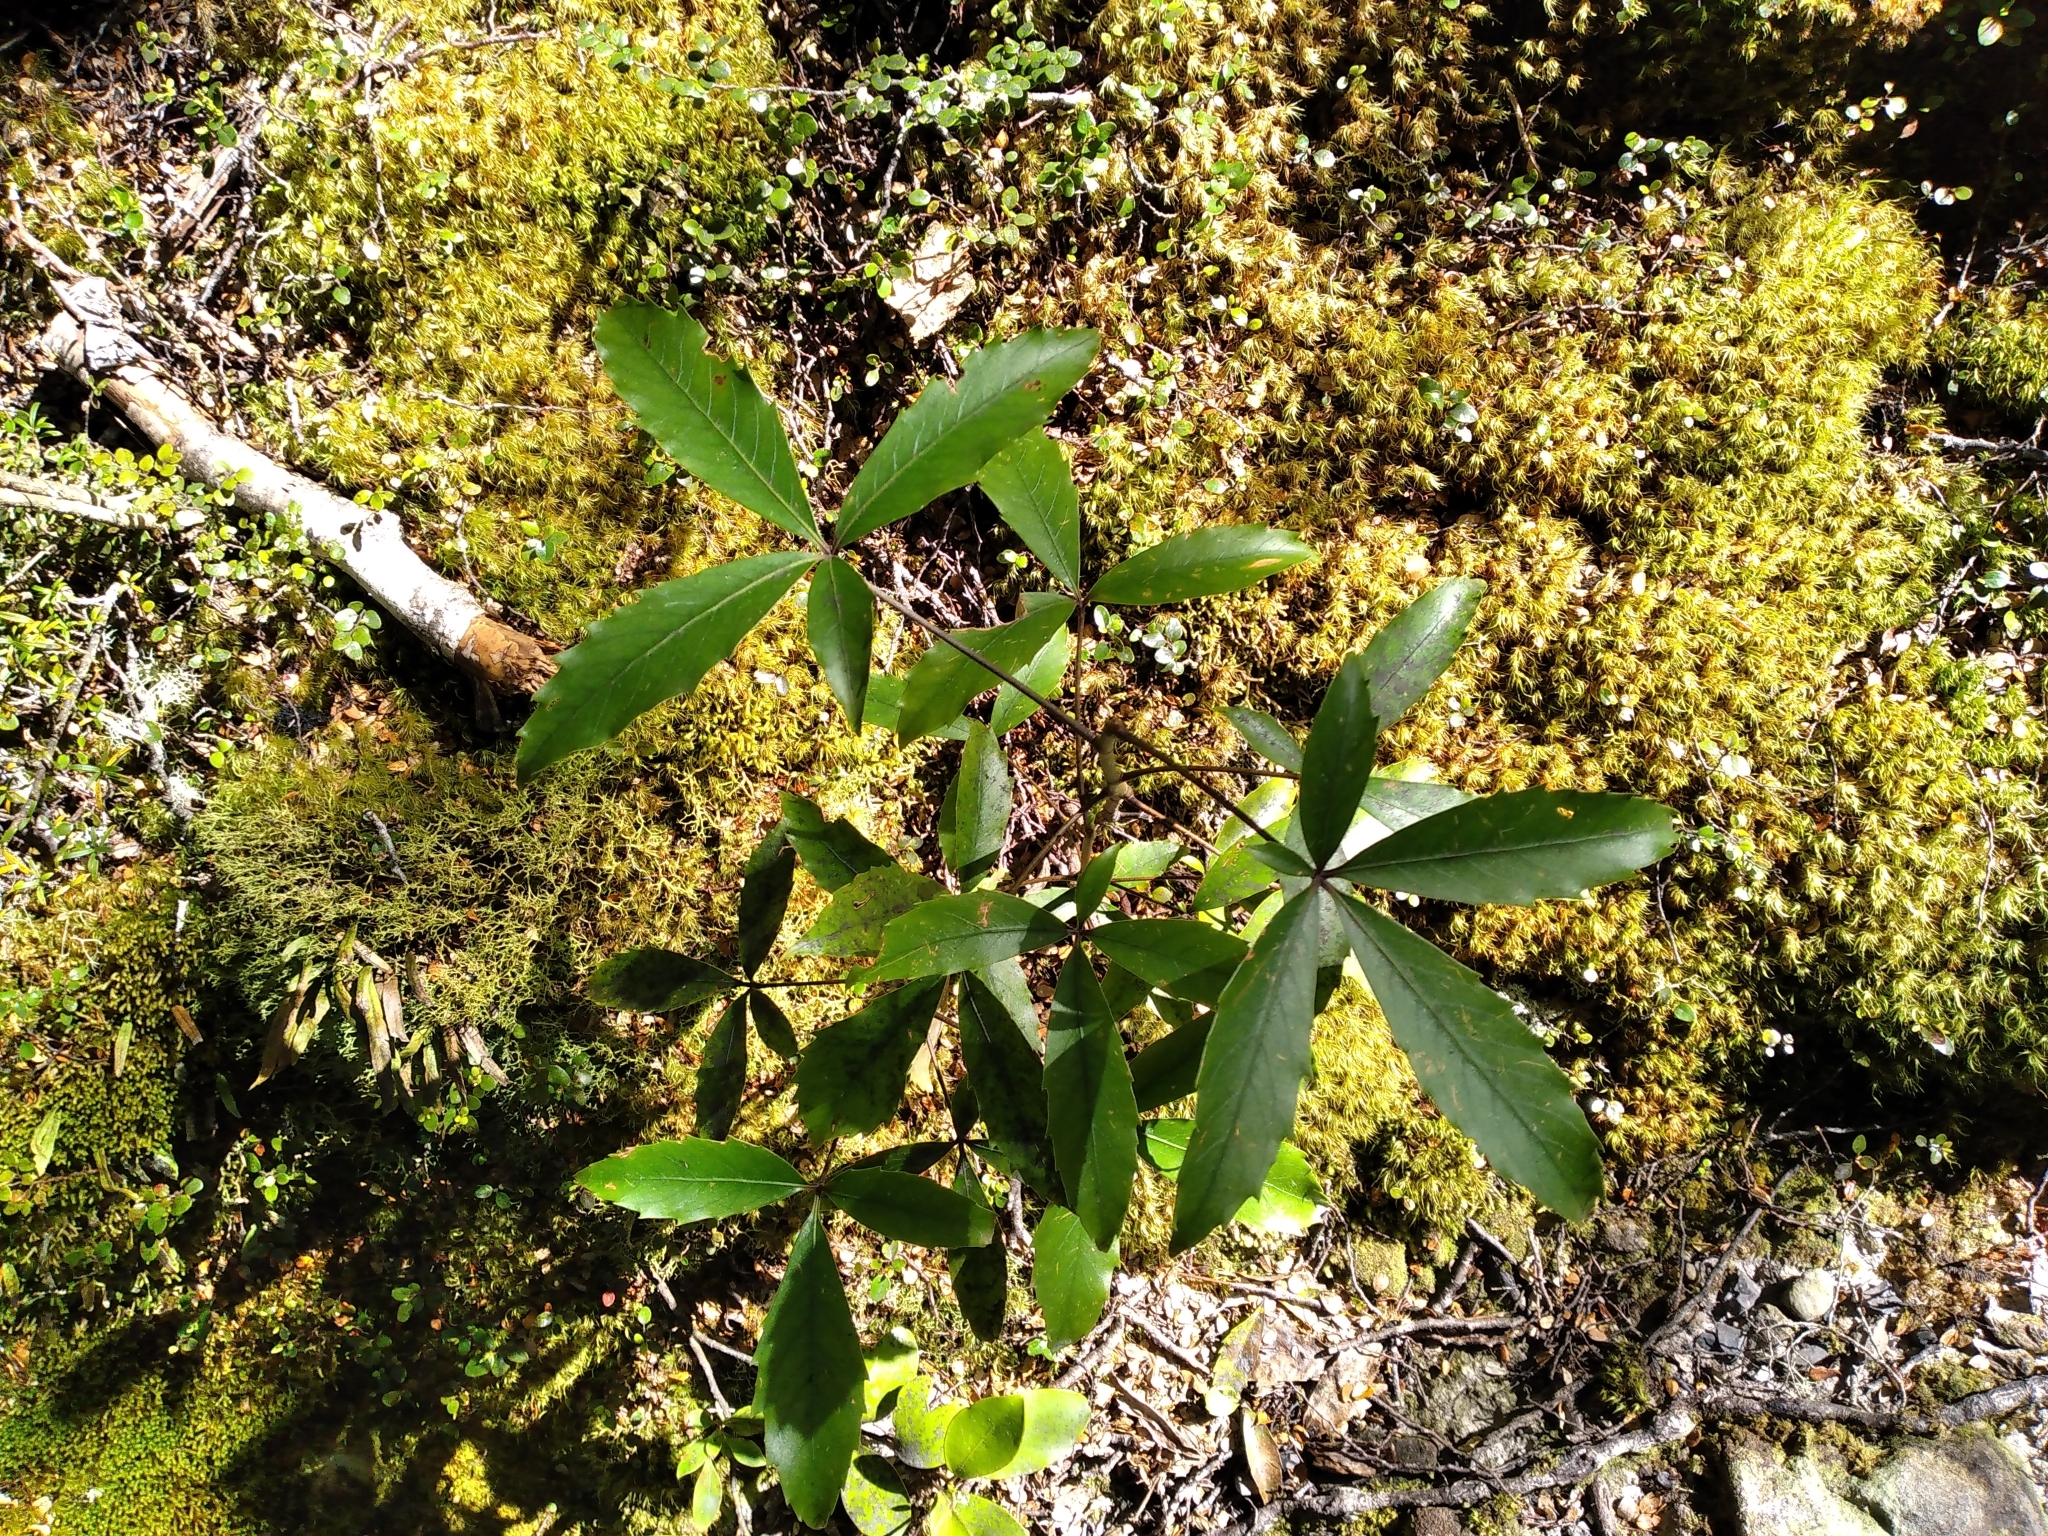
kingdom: Plantae
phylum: Tracheophyta
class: Magnoliopsida
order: Apiales
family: Araliaceae
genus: Neopanax
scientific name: Neopanax colensoi
